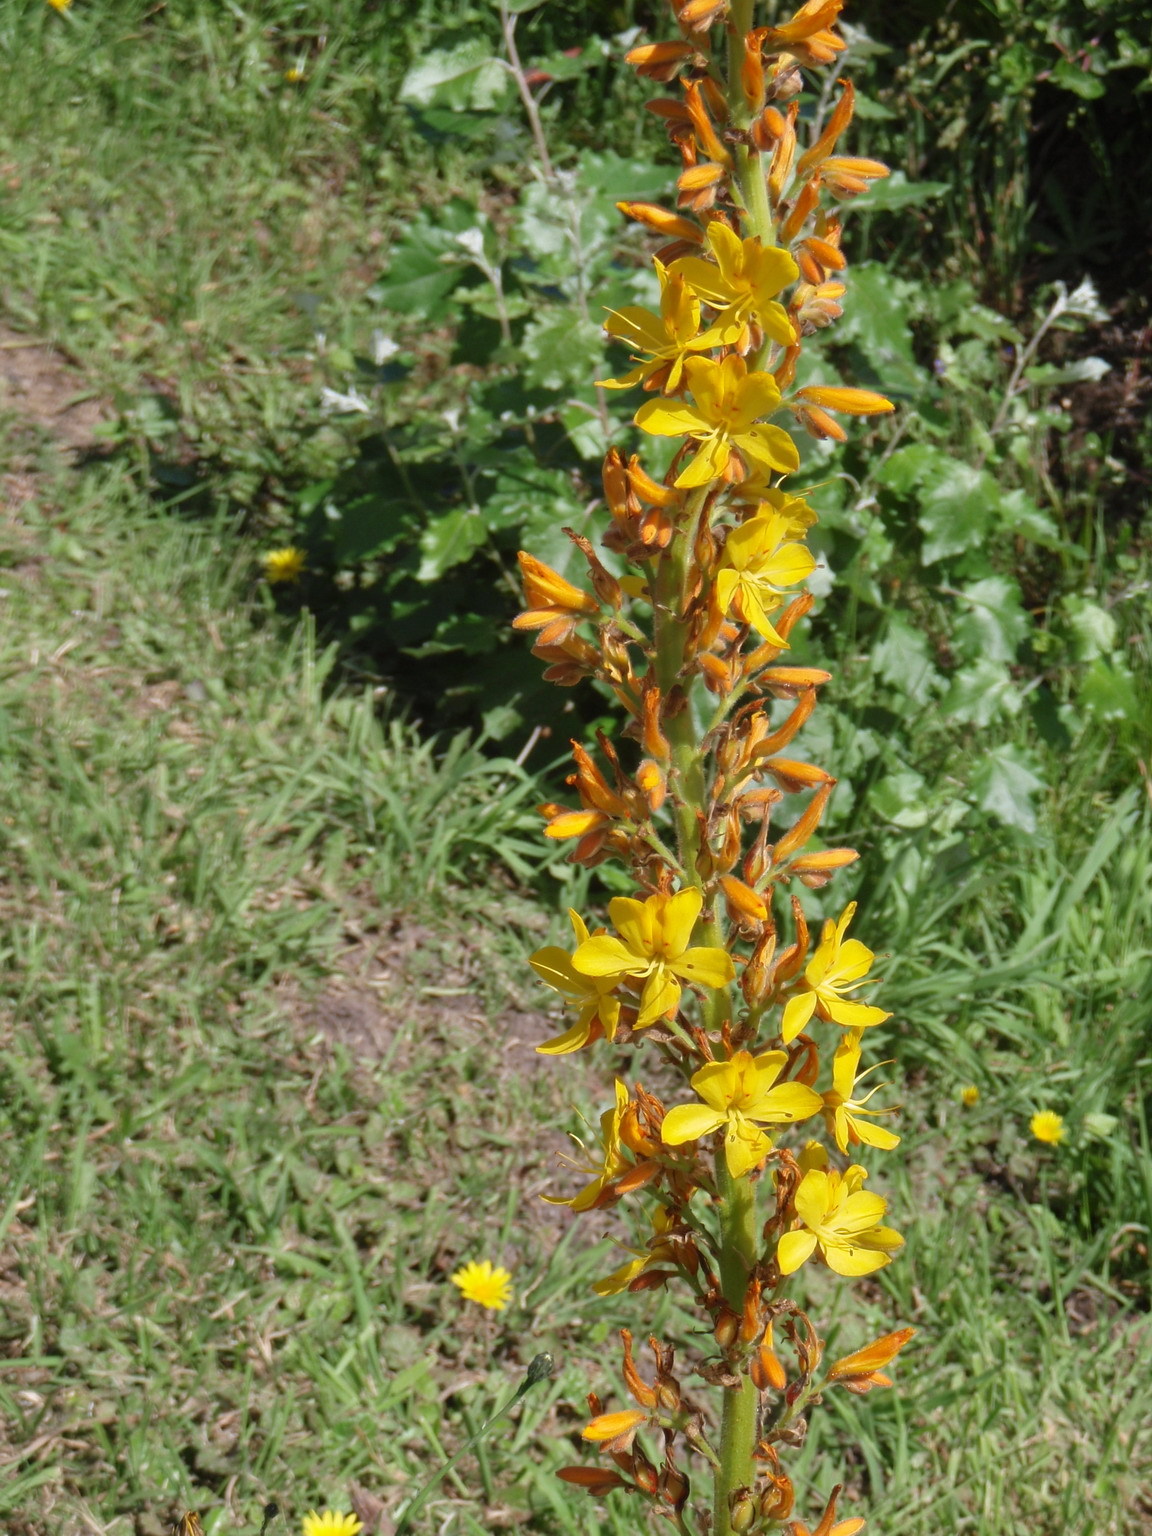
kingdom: Plantae
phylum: Tracheophyta
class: Liliopsida
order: Commelinales
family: Haemodoraceae
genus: Wachendorfia
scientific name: Wachendorfia thyrsiflora
